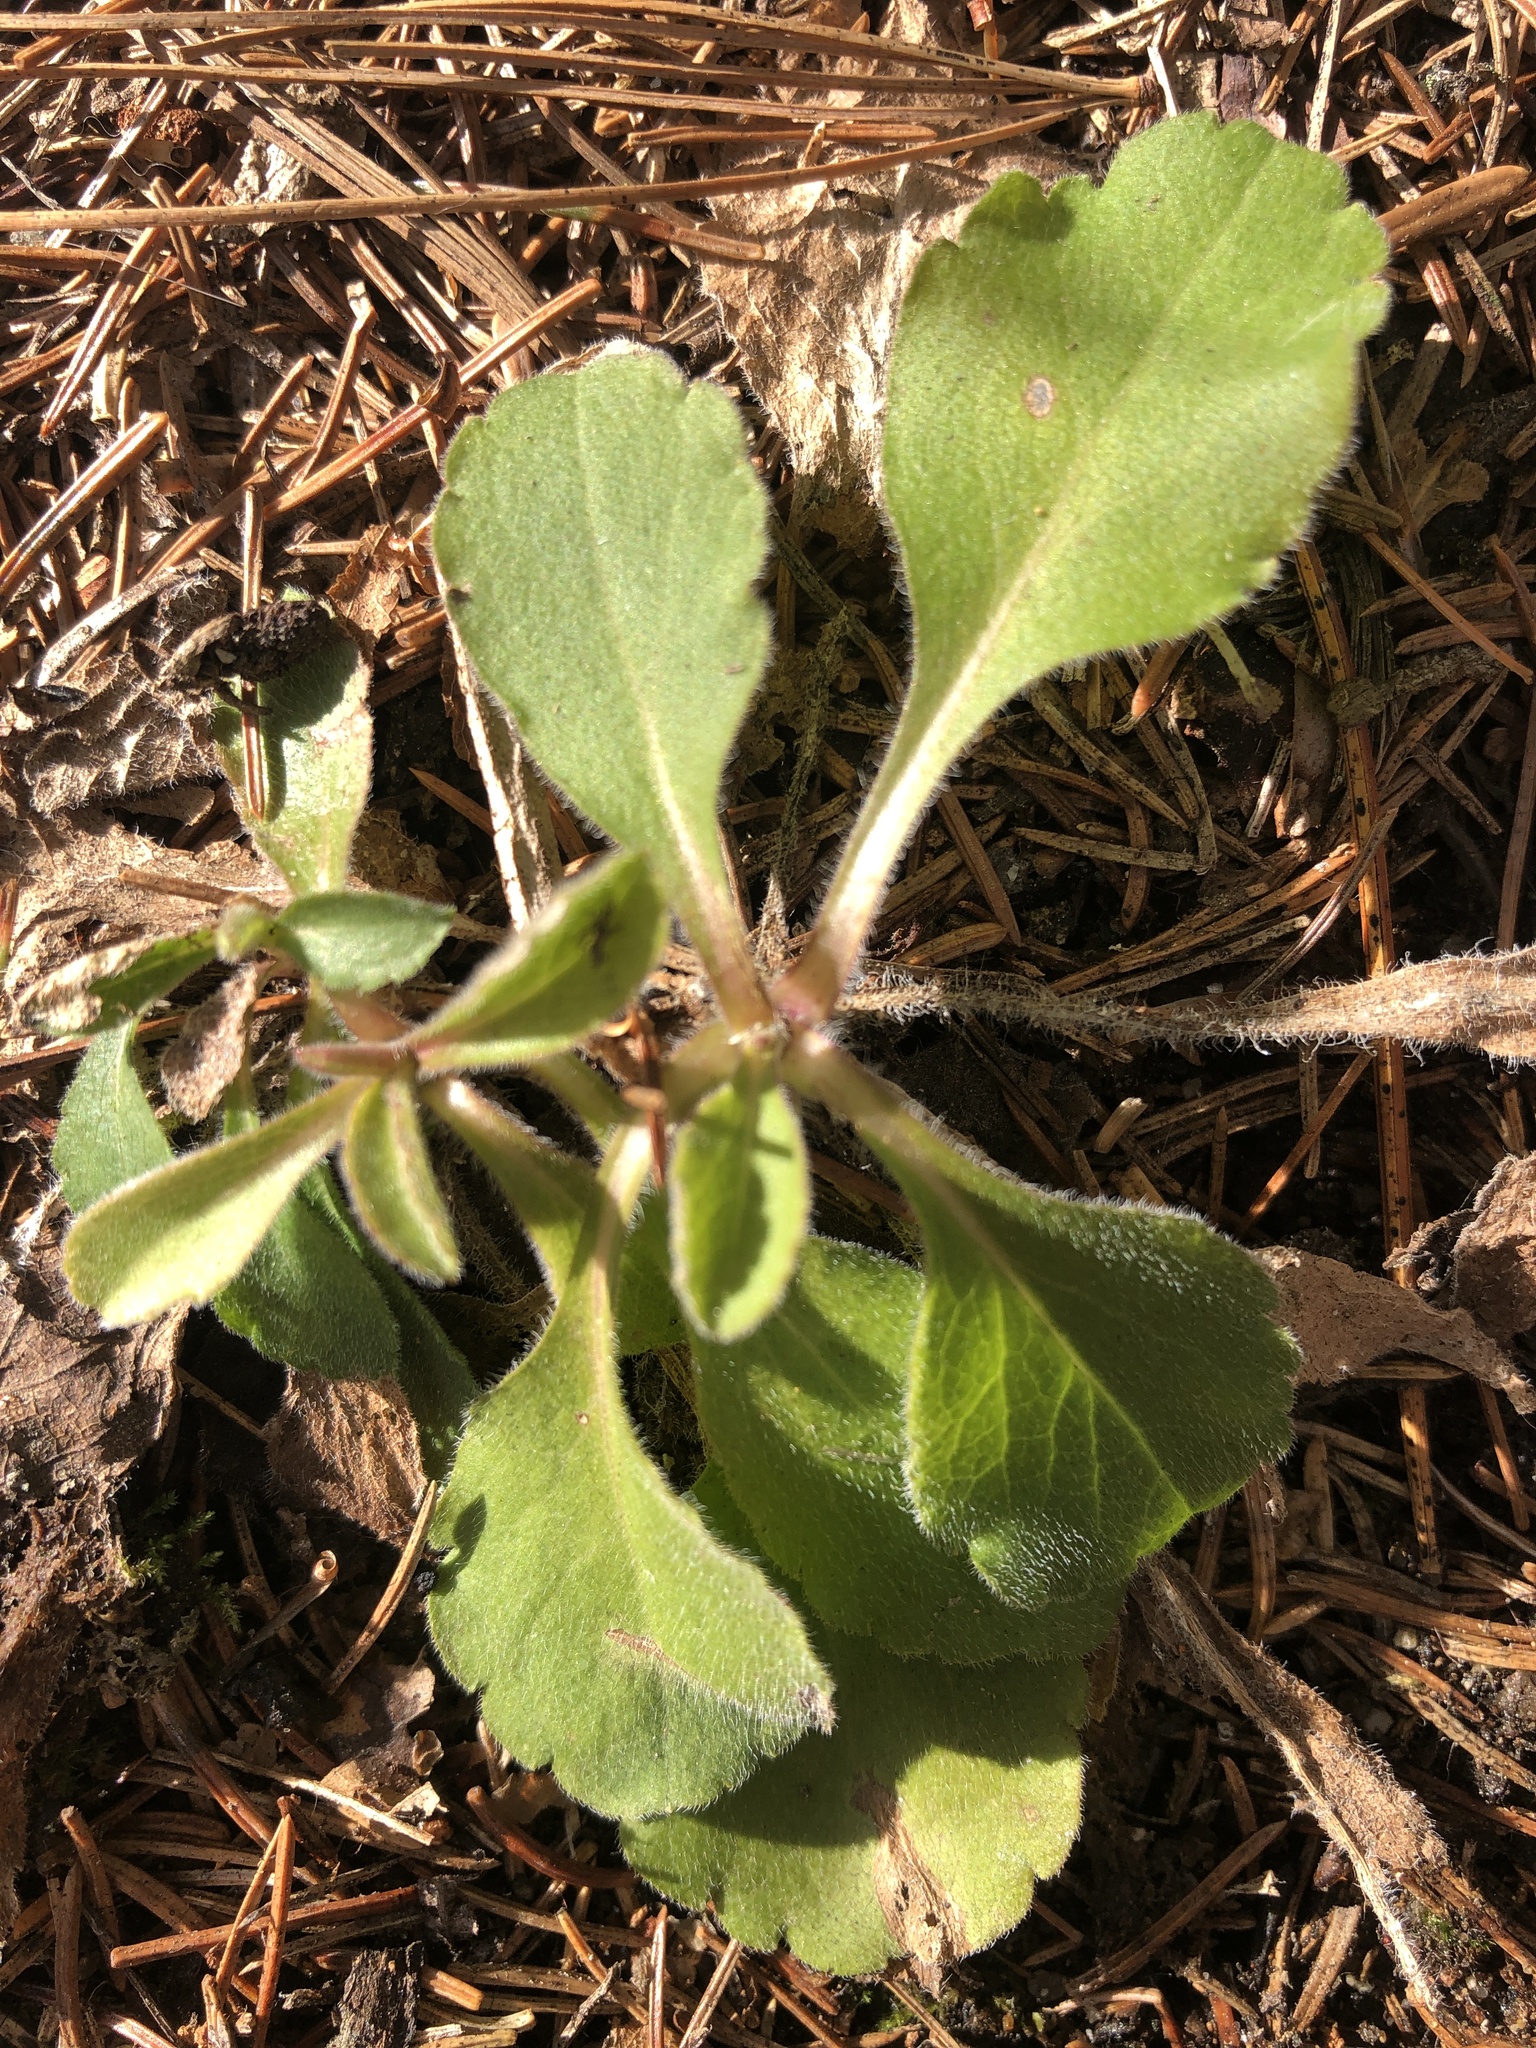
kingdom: Plantae
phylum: Tracheophyta
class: Magnoliopsida
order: Lamiales
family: Plantaginaceae
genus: Veronica
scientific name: Veronica officinalis
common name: Common speedwell
